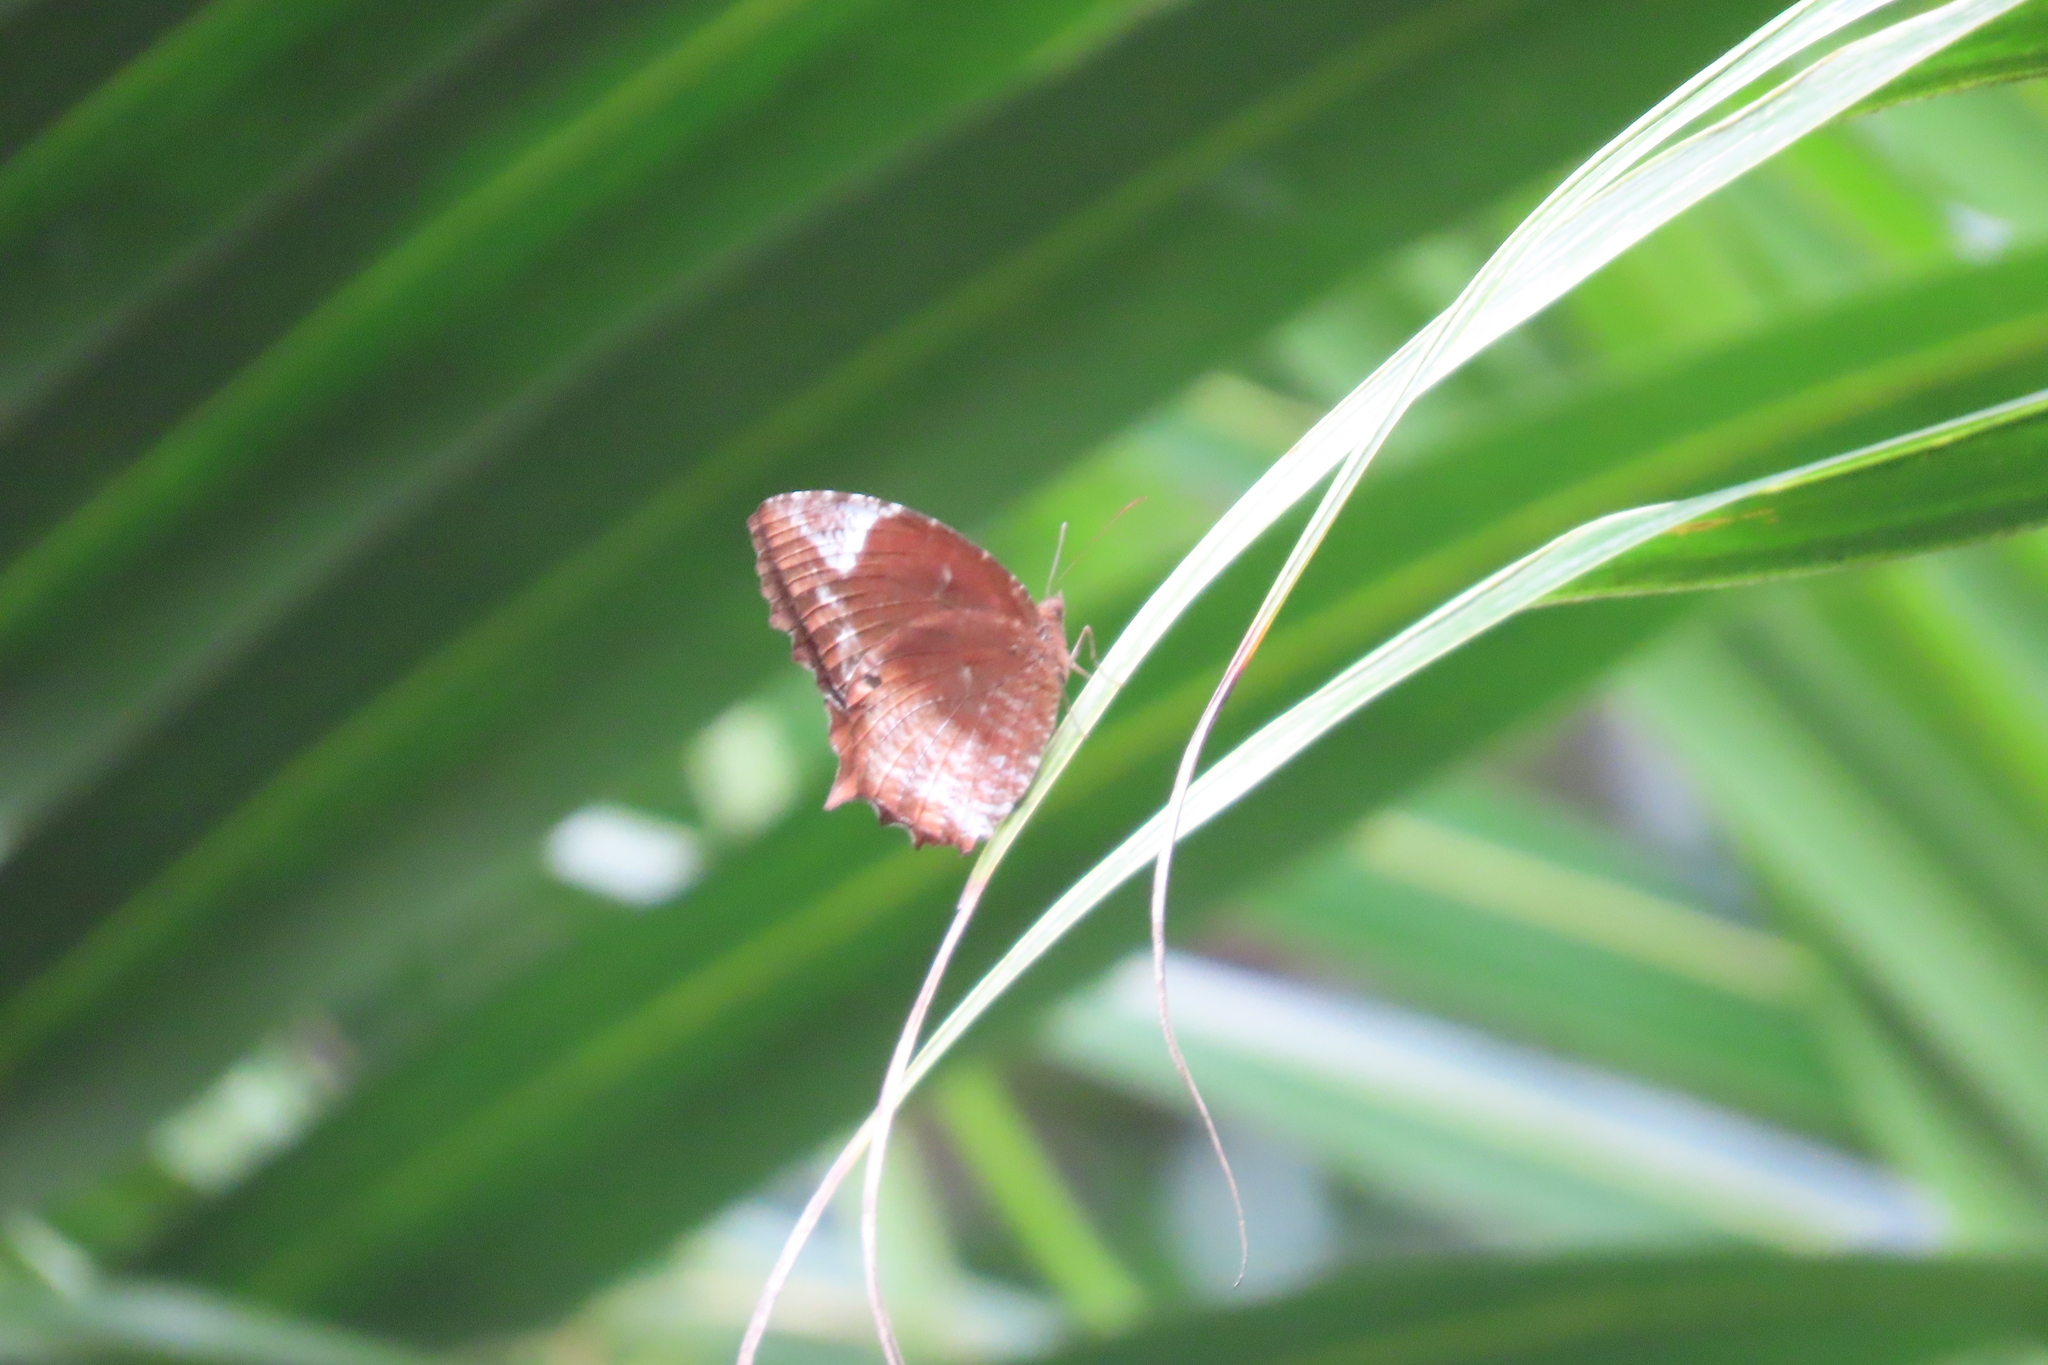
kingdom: Animalia
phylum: Arthropoda
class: Insecta
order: Lepidoptera
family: Nymphalidae
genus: Elymnias
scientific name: Elymnias caudata
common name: Tailed palmfly
